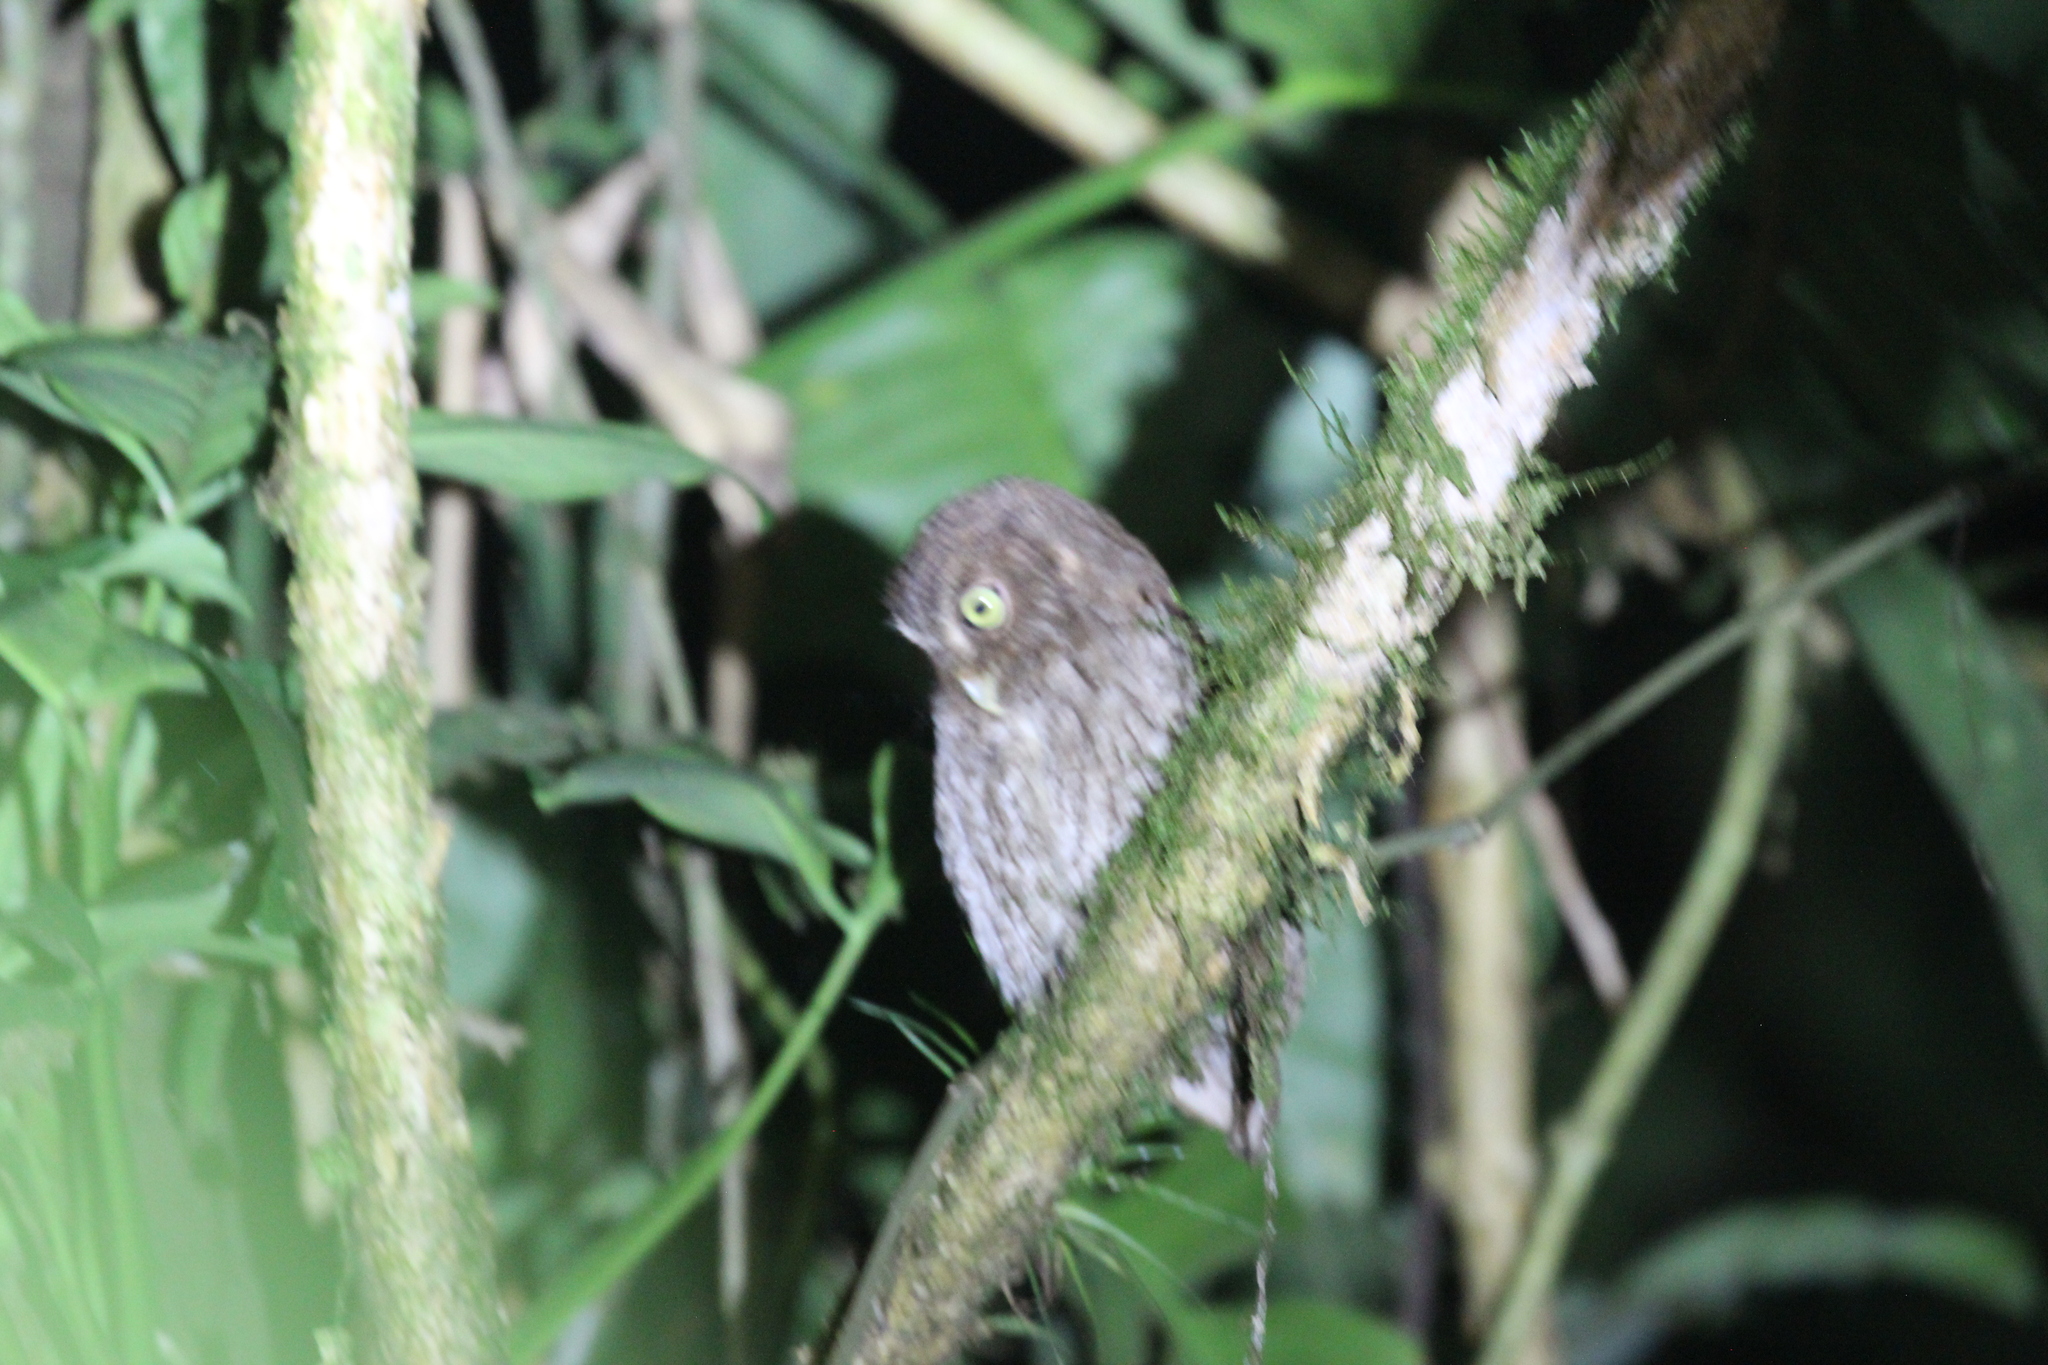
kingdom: Animalia
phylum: Chordata
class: Aves
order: Strigiformes
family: Strigidae
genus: Megascops
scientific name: Megascops guatemalae
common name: Vermiculated screech-owl
